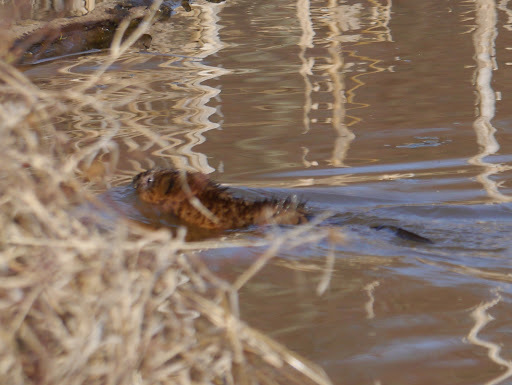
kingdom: Animalia
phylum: Chordata
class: Mammalia
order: Rodentia
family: Cricetidae
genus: Ondatra
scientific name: Ondatra zibethicus
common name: Muskrat
